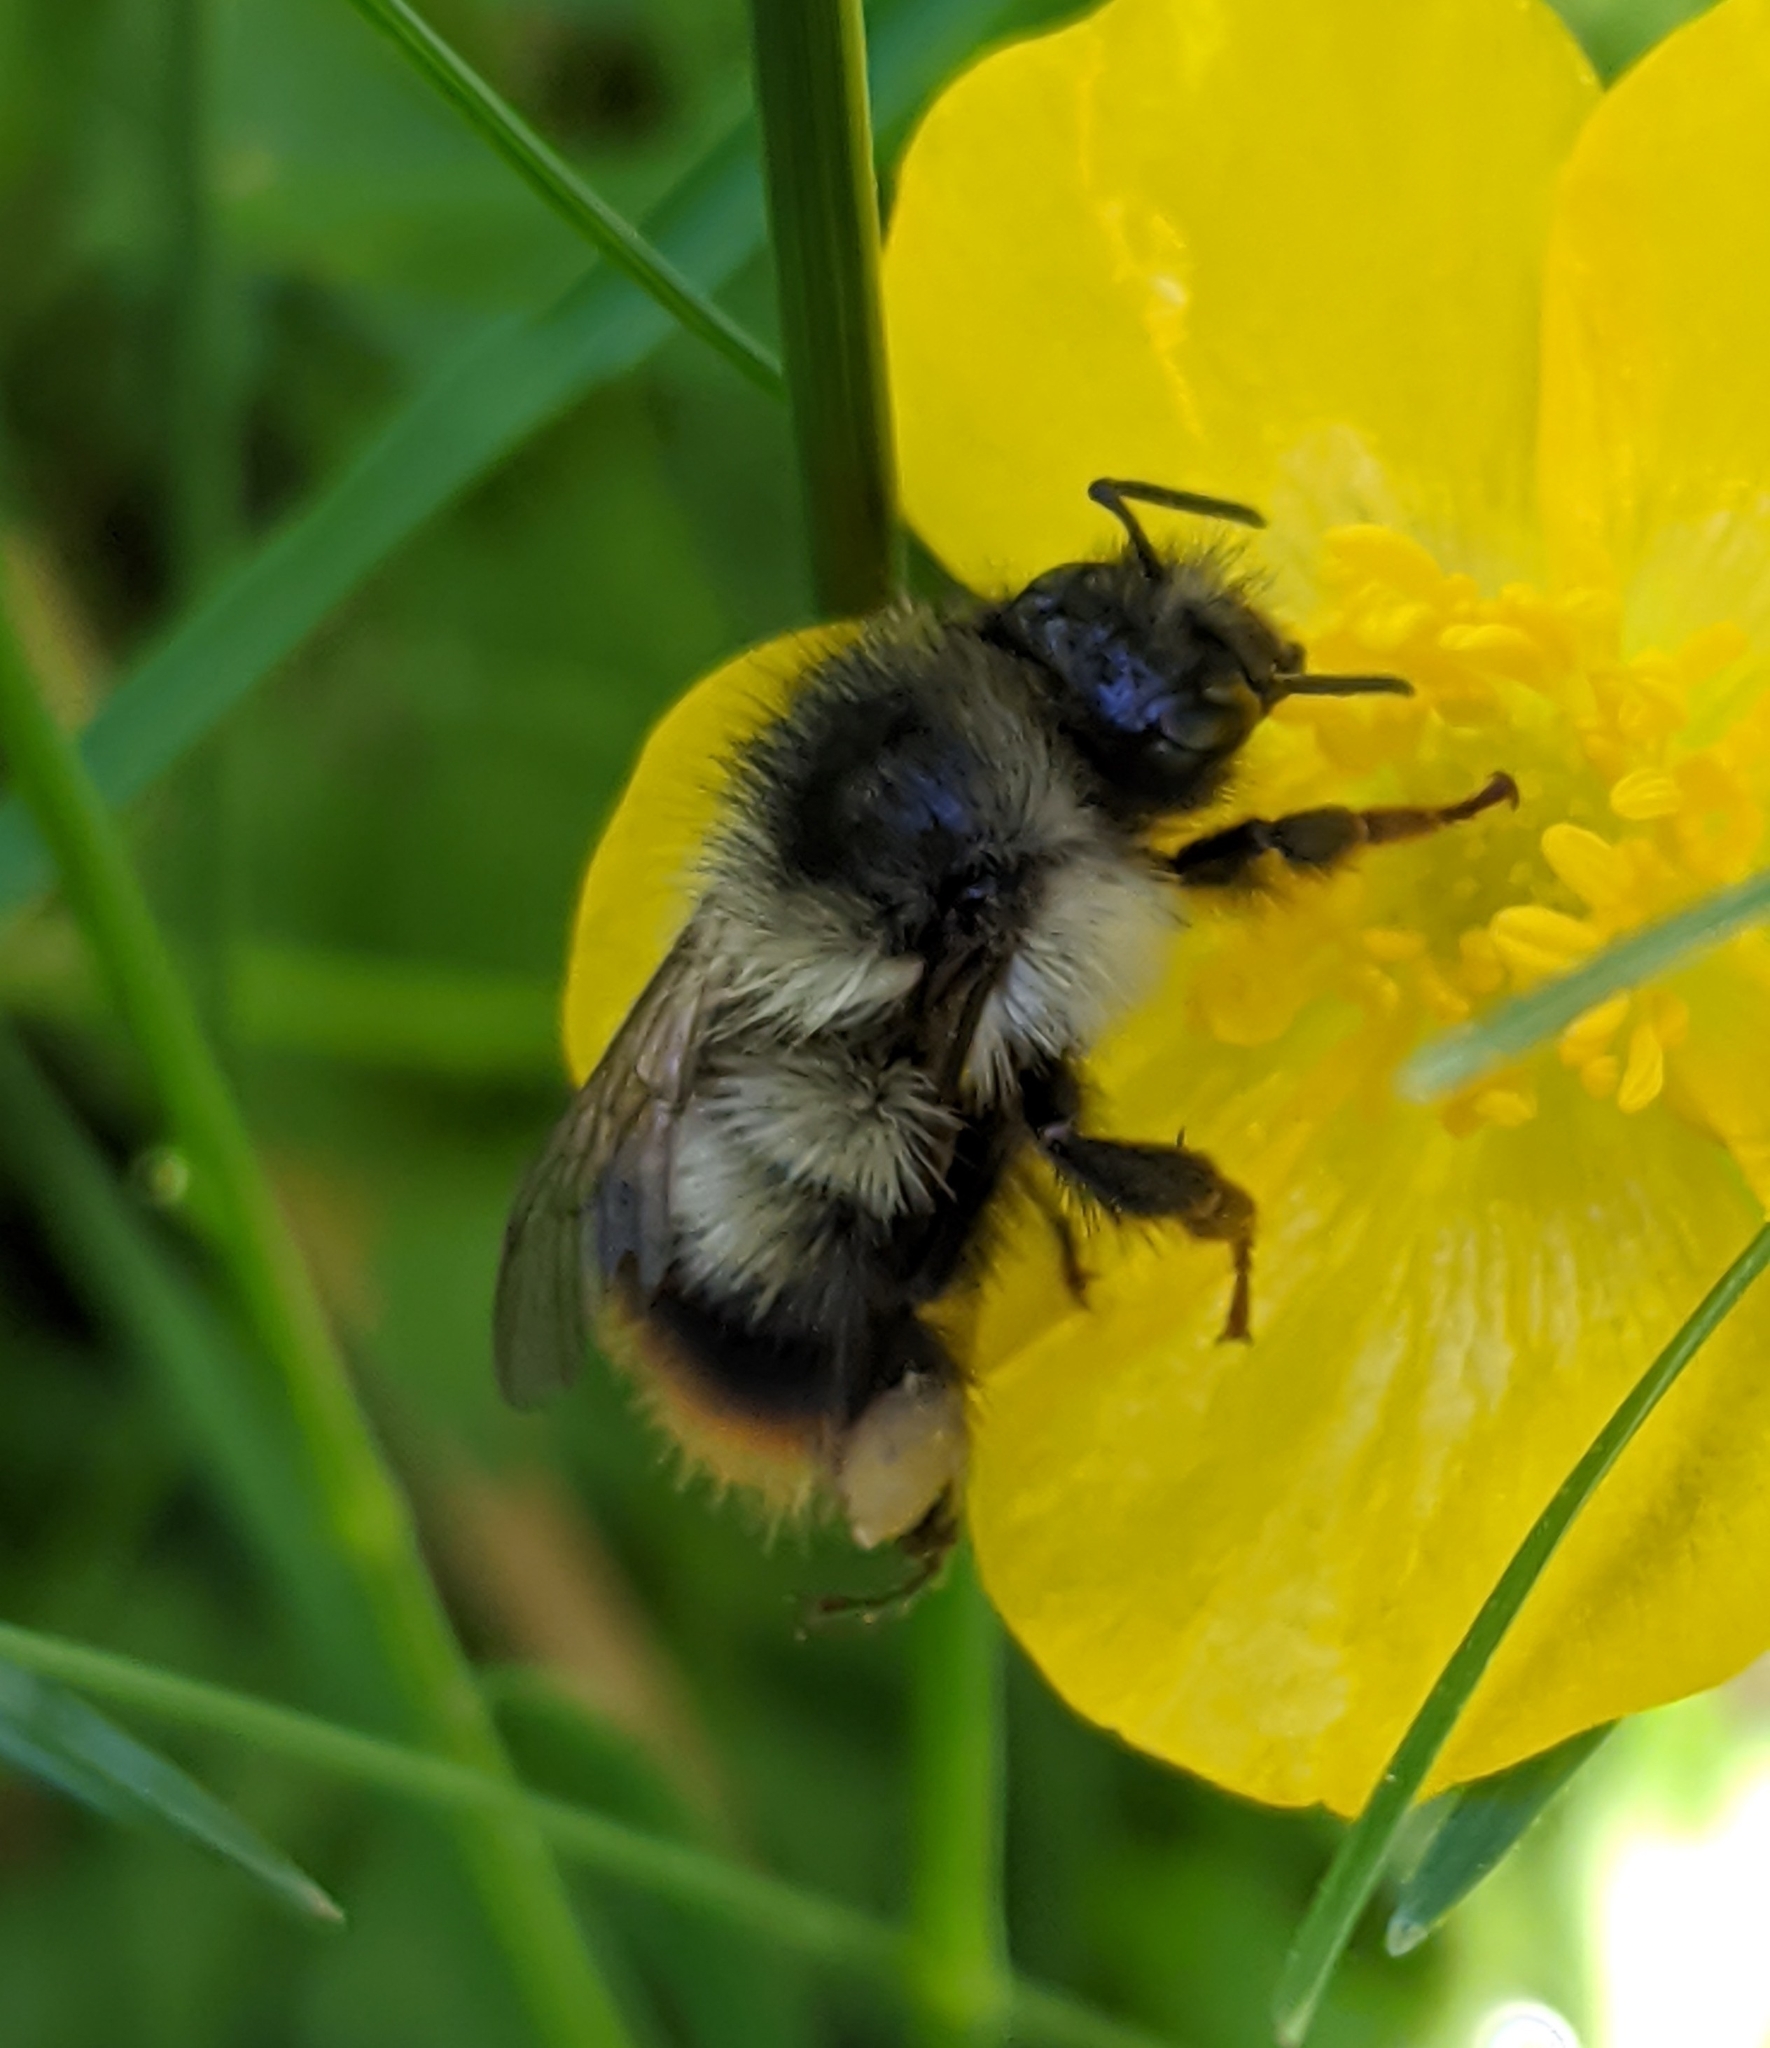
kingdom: Animalia
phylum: Arthropoda
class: Insecta
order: Hymenoptera
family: Apidae
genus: Bombus
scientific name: Bombus mixtus
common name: Fuzzy-horned bumble bee
